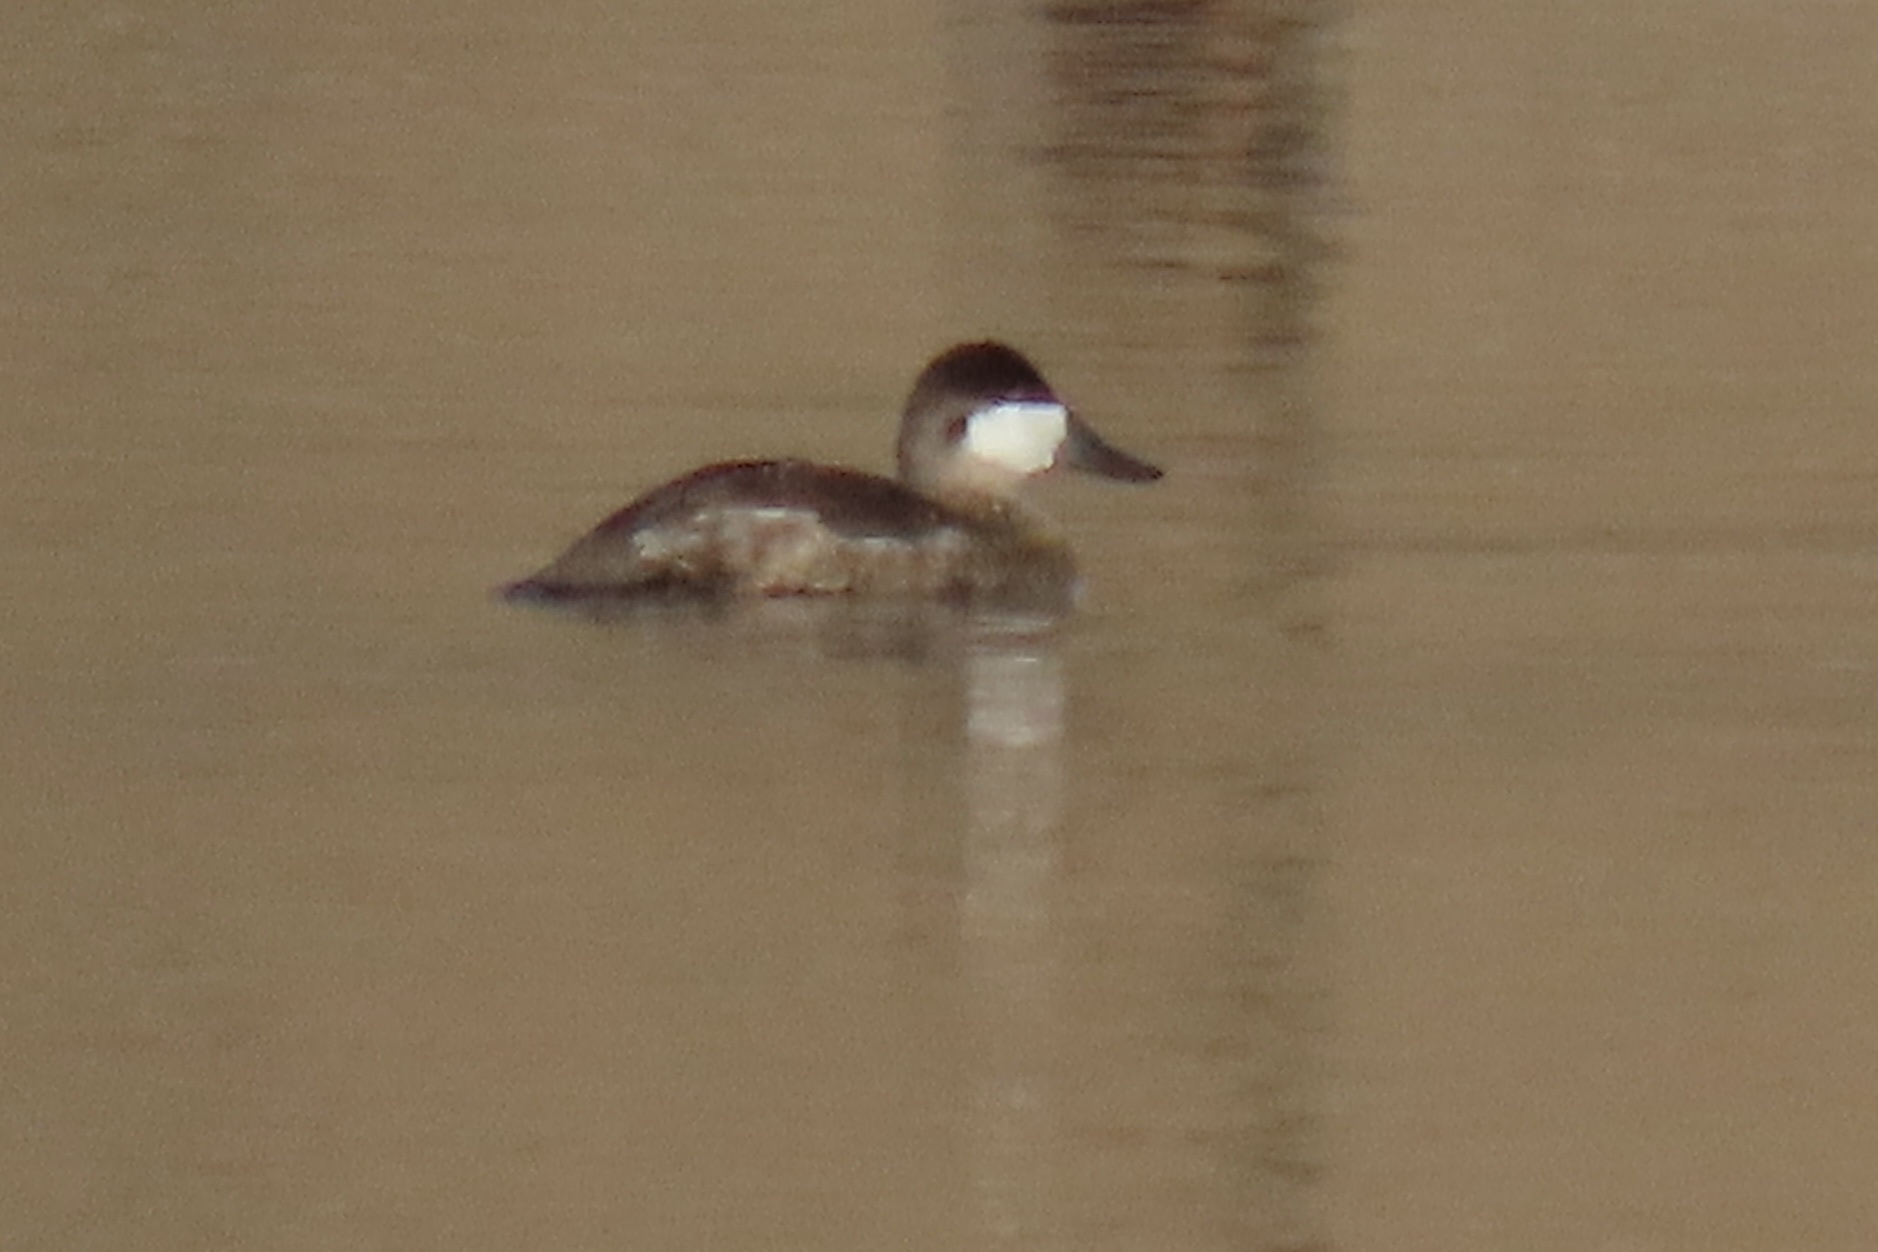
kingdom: Animalia
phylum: Chordata
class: Aves
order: Anseriformes
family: Anatidae
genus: Oxyura
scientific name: Oxyura jamaicensis
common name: Ruddy duck
